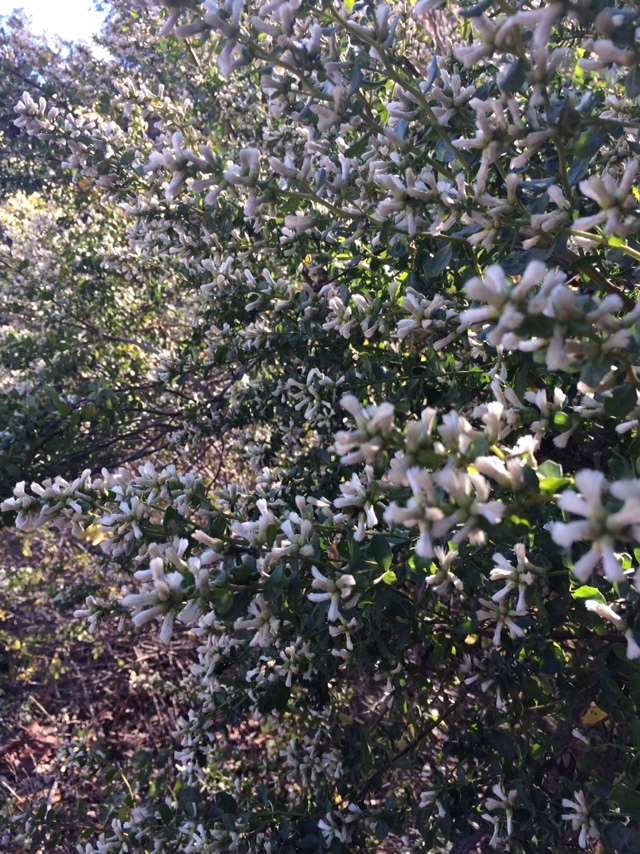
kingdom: Plantae
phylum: Tracheophyta
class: Magnoliopsida
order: Asterales
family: Asteraceae
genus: Baccharis
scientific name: Baccharis pilularis
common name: Coyotebrush
